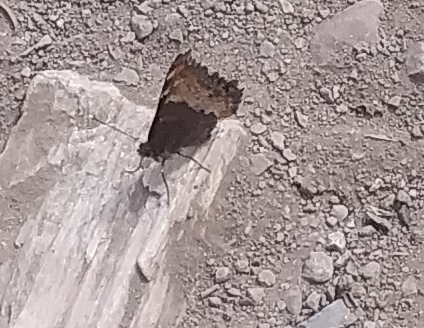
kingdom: Animalia
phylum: Arthropoda
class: Insecta
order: Lepidoptera
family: Nymphalidae
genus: Aglais
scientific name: Aglais milberti
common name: Milbert's tortoiseshell
